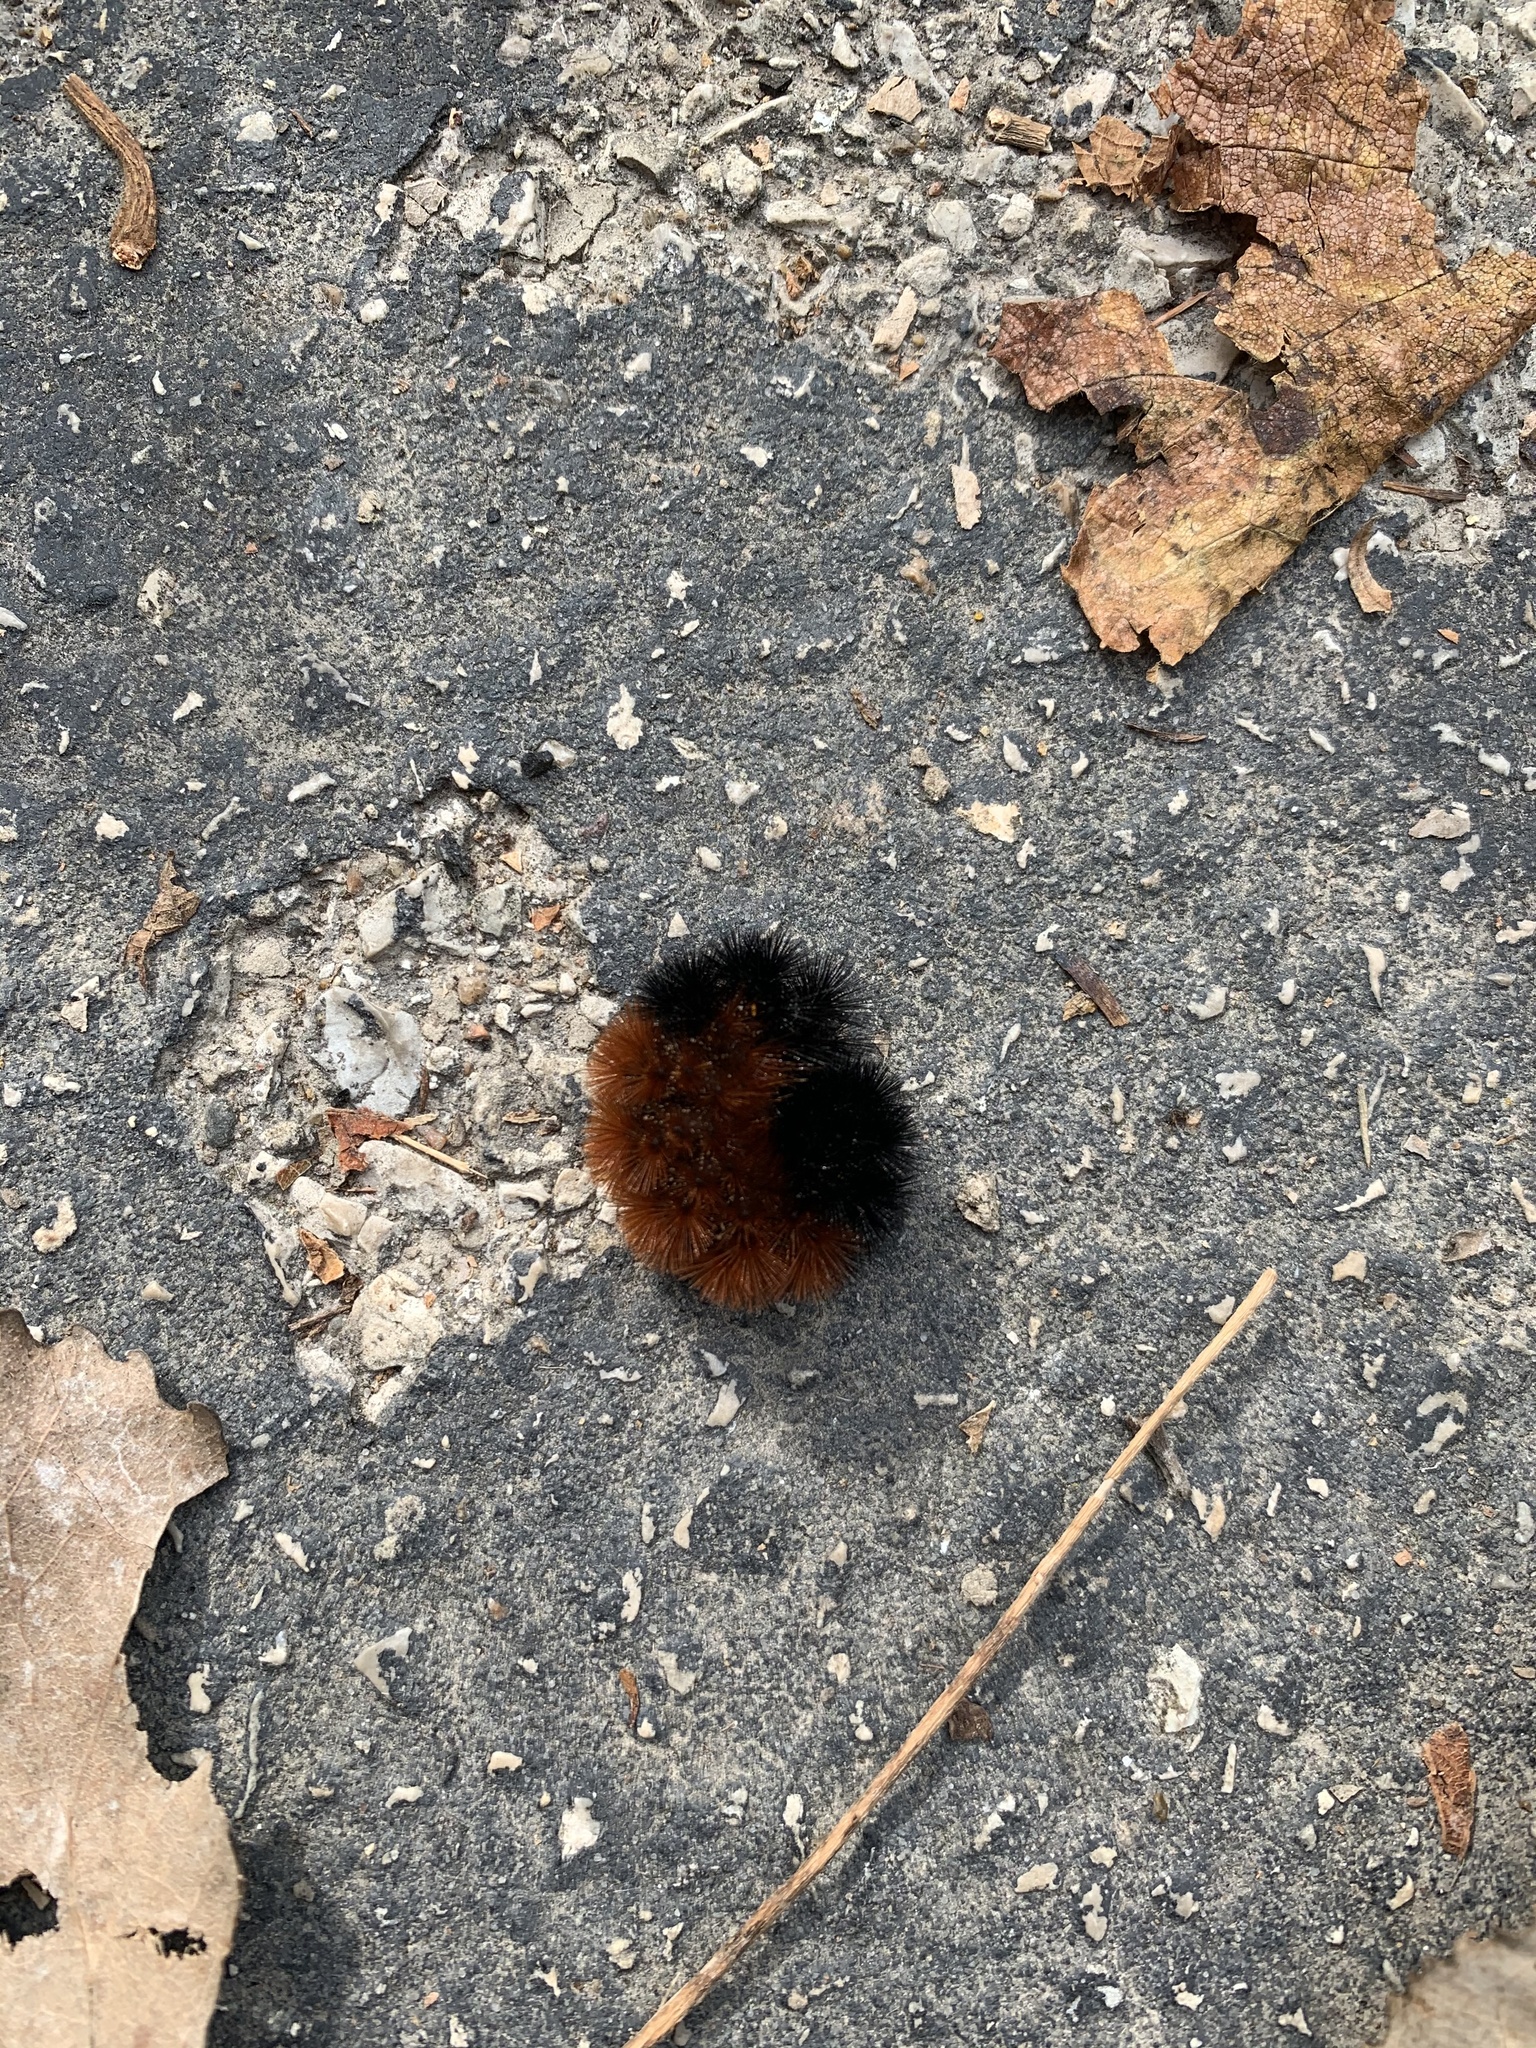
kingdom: Animalia
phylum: Arthropoda
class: Insecta
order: Lepidoptera
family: Erebidae
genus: Pyrrharctia
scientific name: Pyrrharctia isabella
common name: Isabella tiger moth
